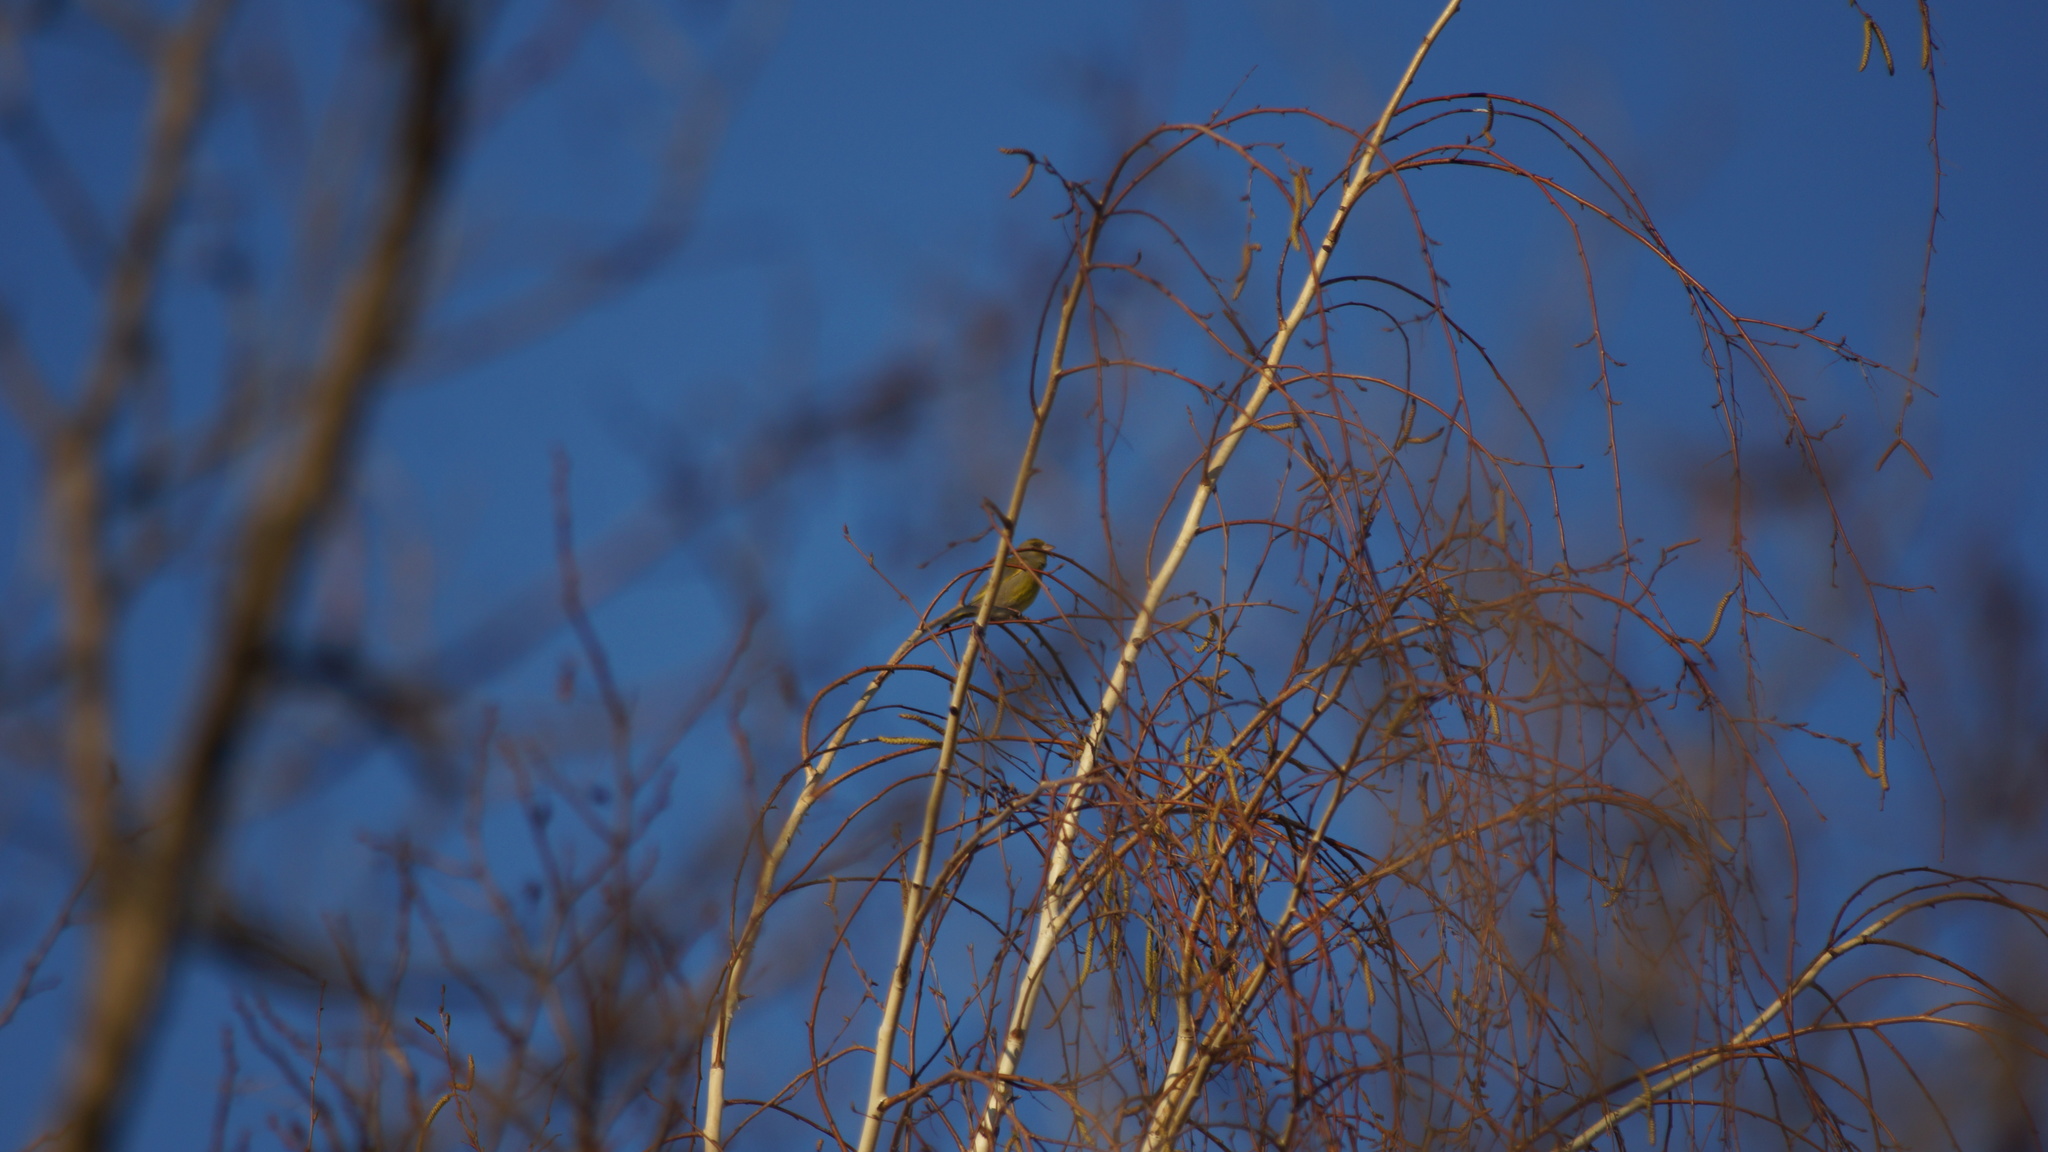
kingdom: Plantae
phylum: Tracheophyta
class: Liliopsida
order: Poales
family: Poaceae
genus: Chloris
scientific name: Chloris chloris
